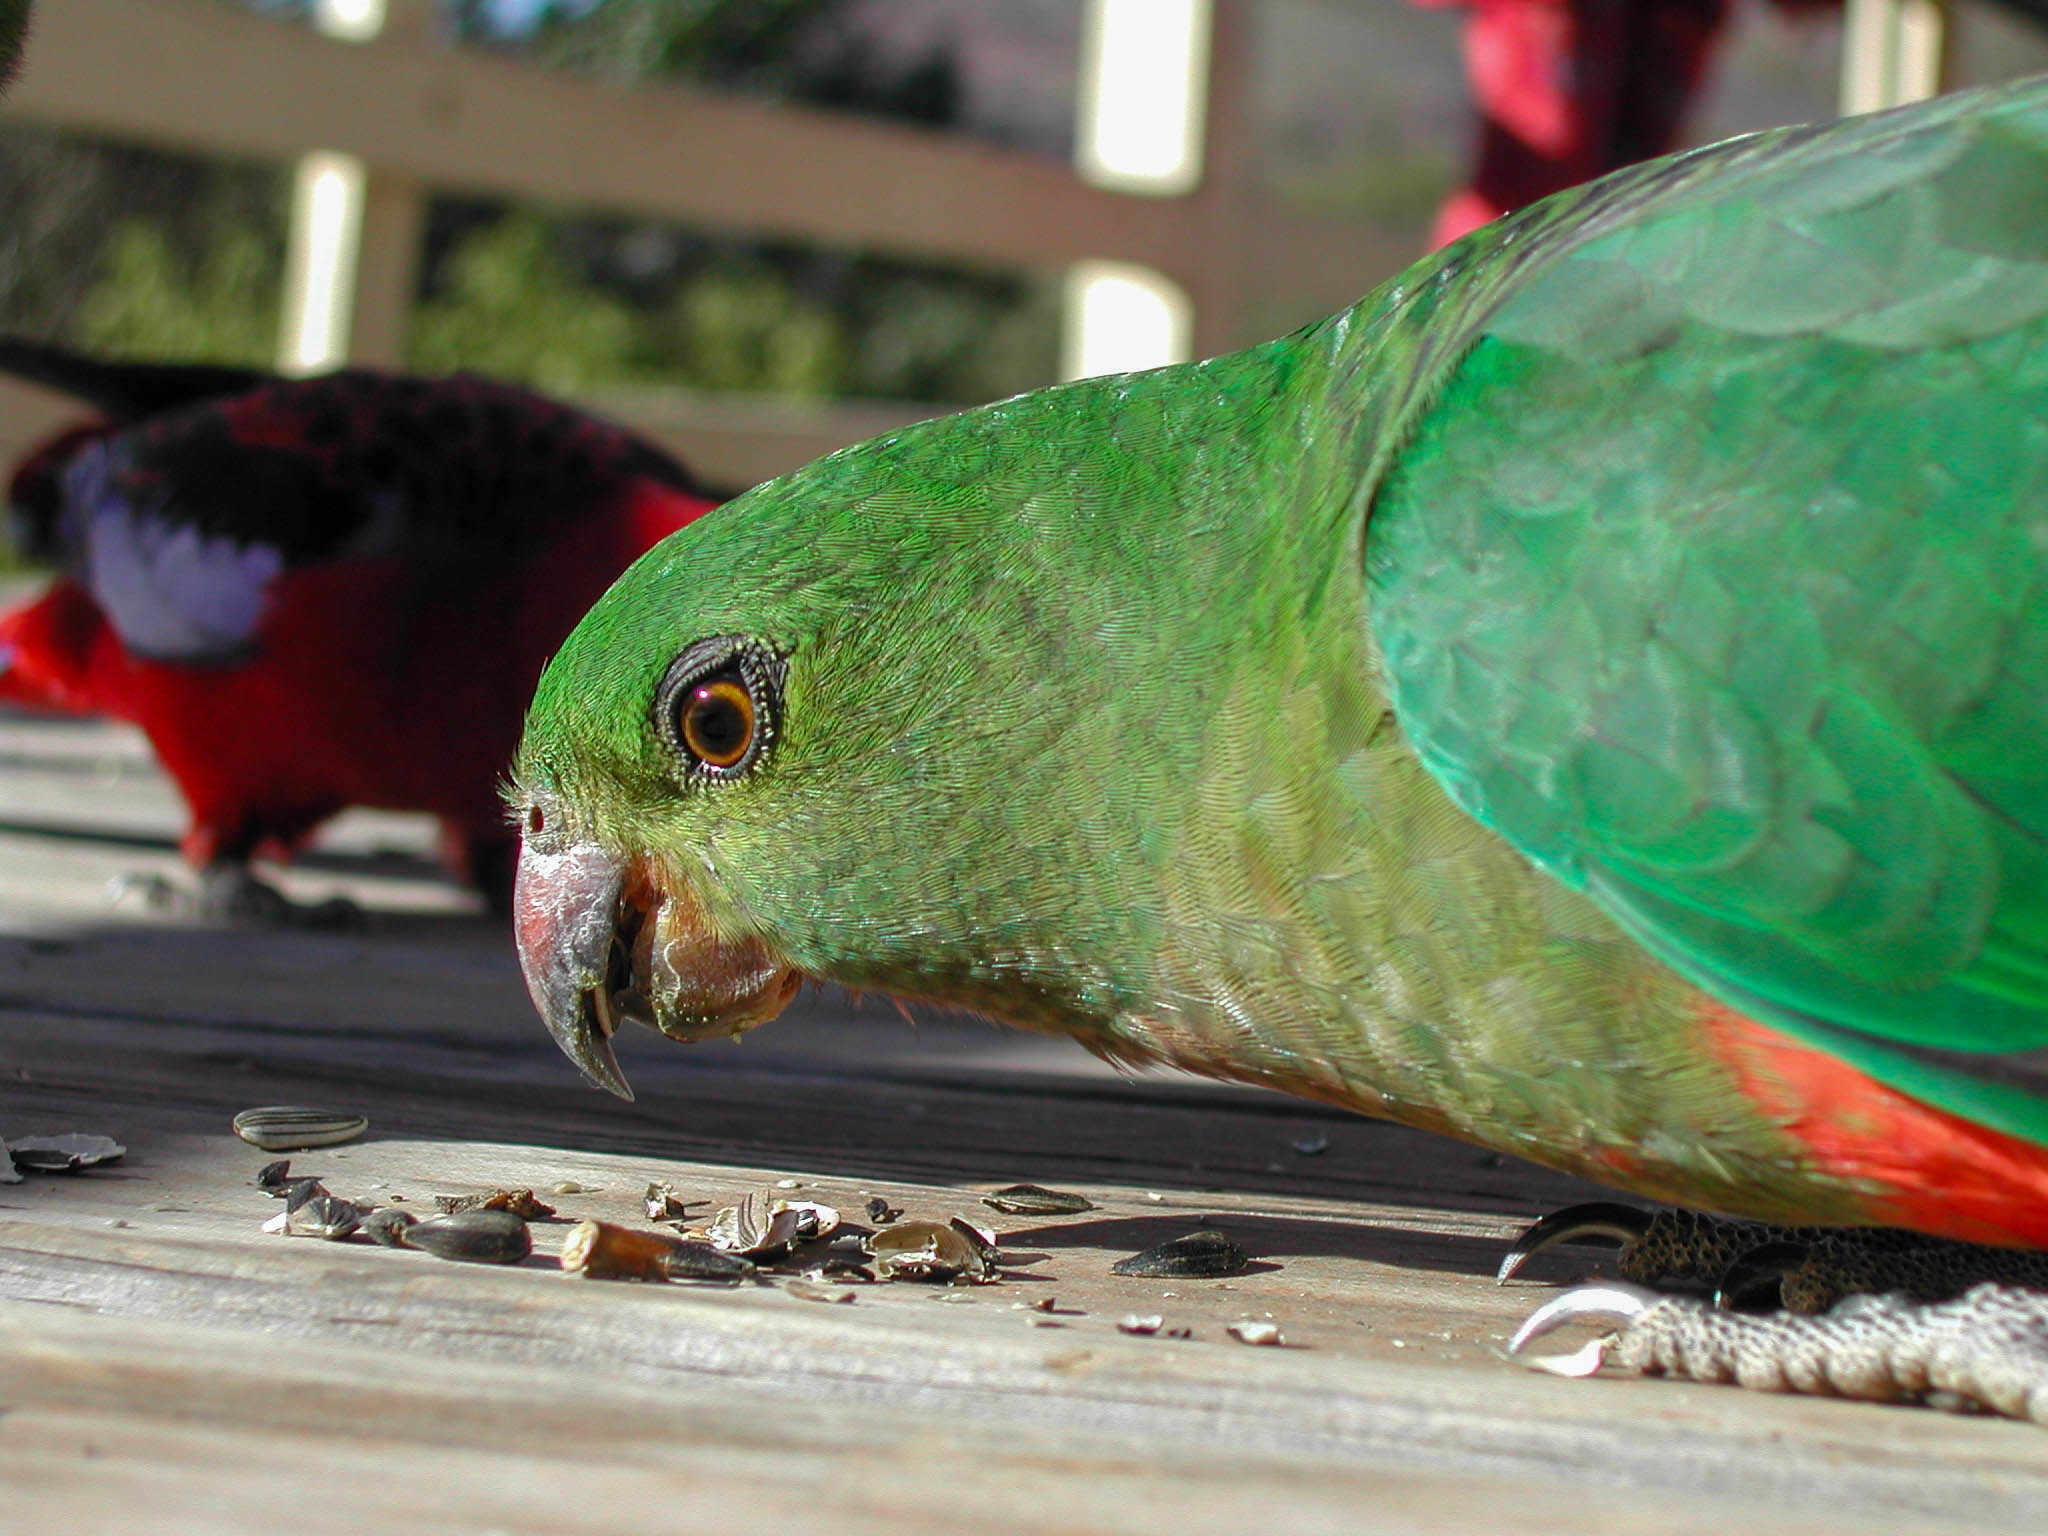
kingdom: Animalia
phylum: Chordata
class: Aves
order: Psittaciformes
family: Psittacidae
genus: Alisterus
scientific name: Alisterus scapularis
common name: Australian king parrot
